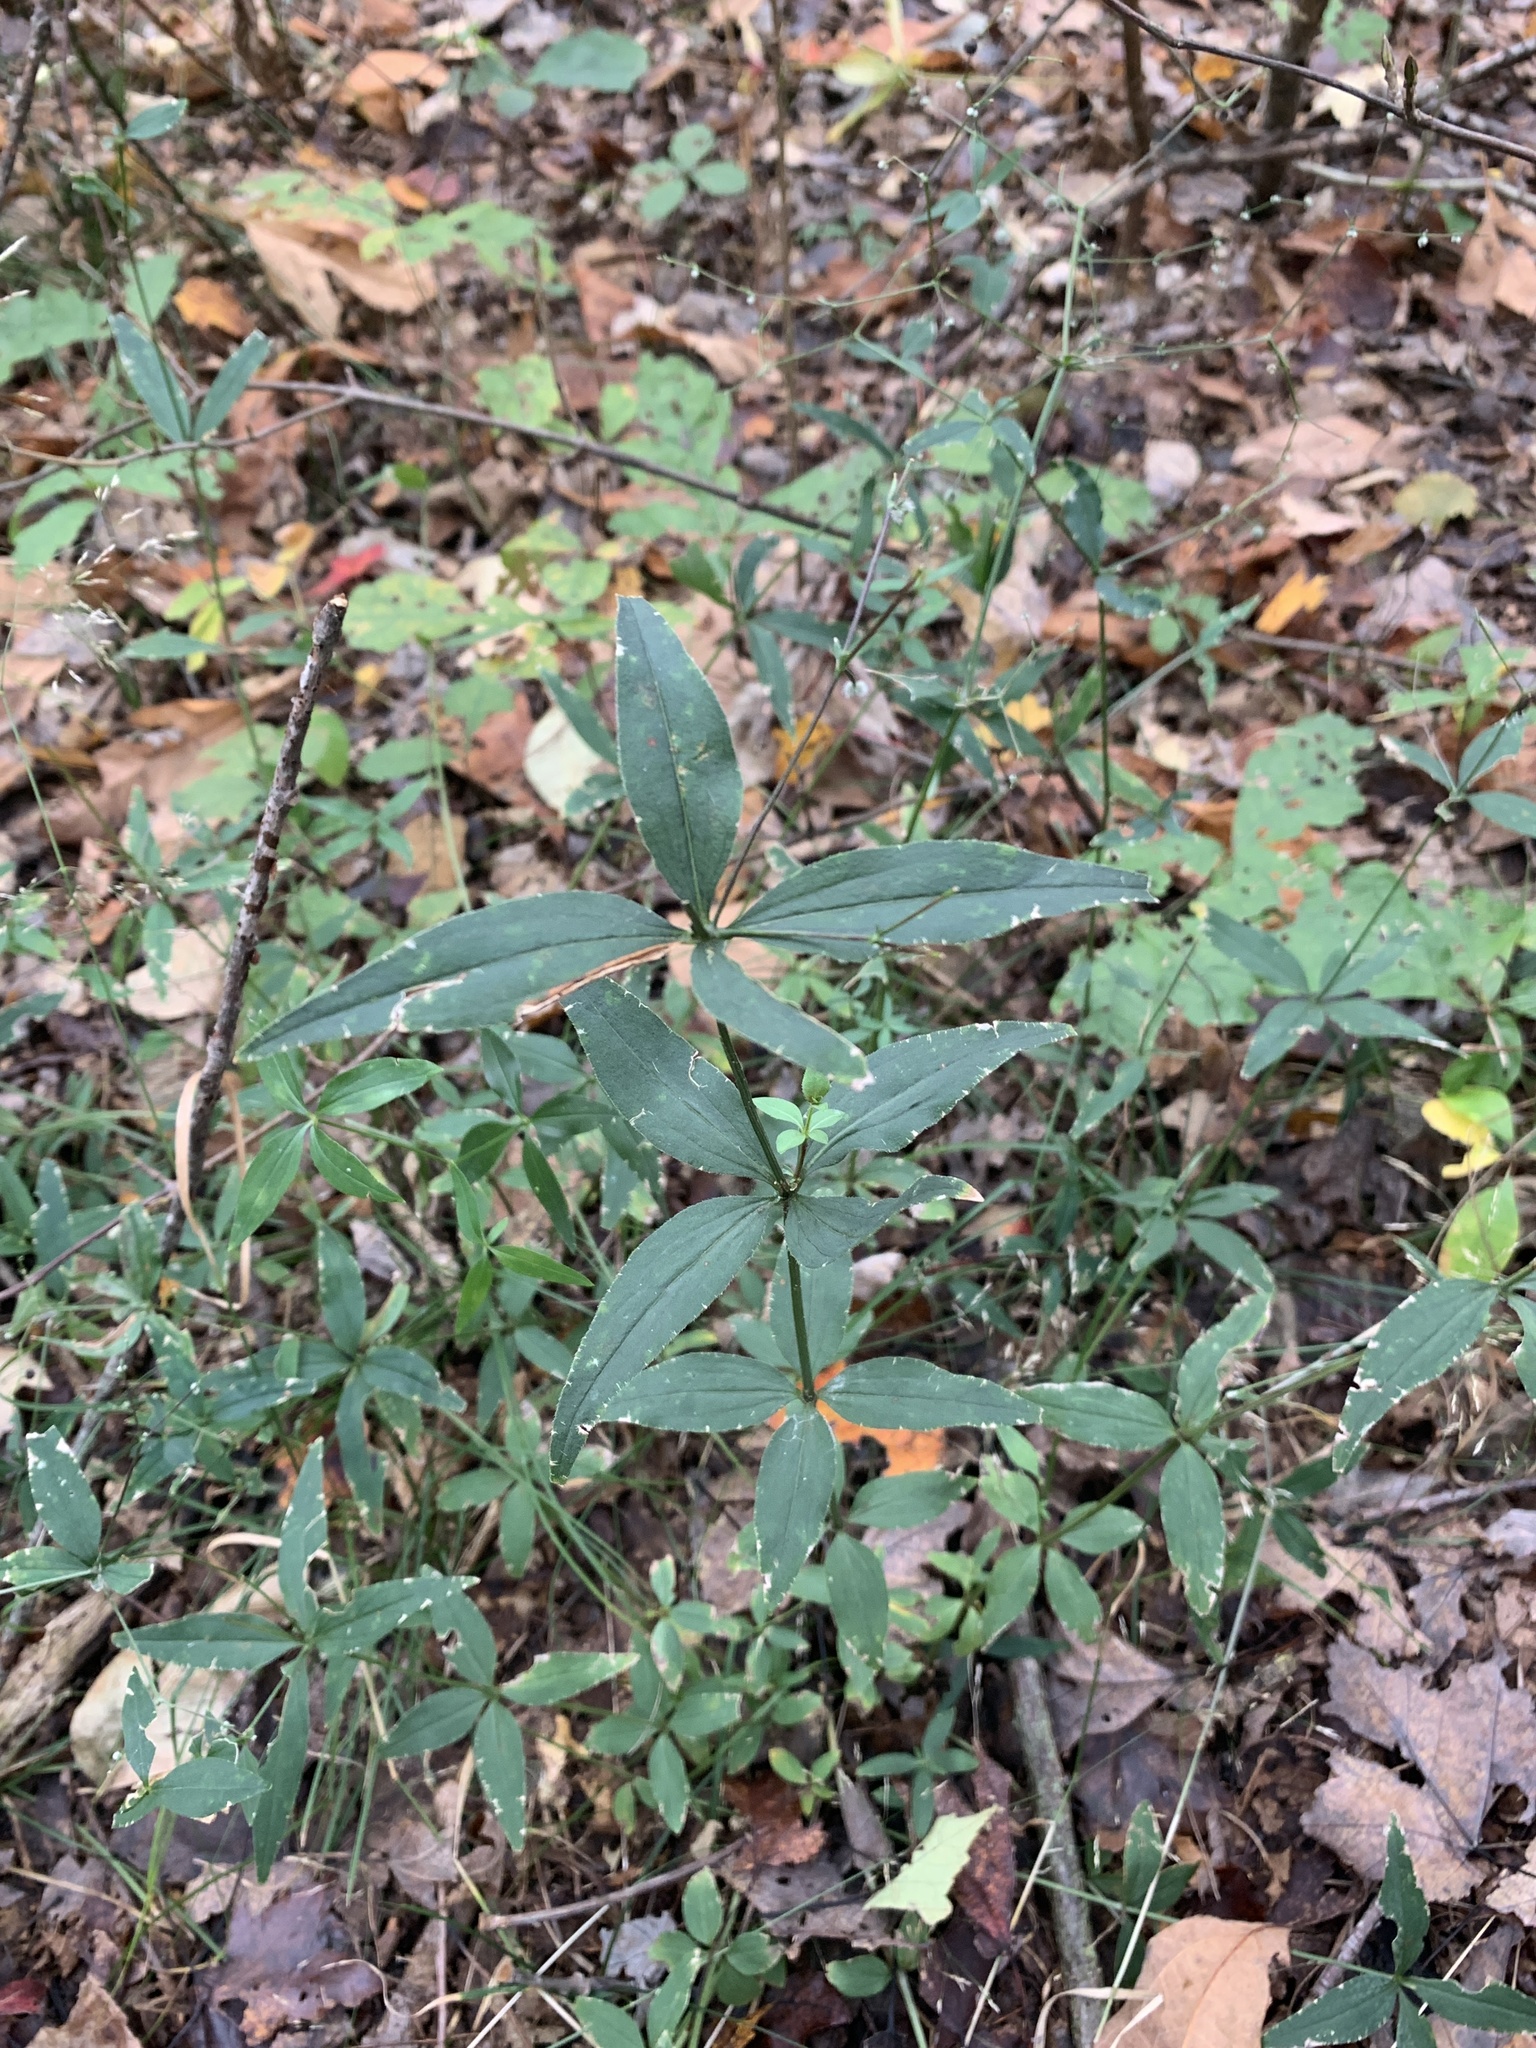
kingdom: Plantae
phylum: Tracheophyta
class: Magnoliopsida
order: Gentianales
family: Rubiaceae
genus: Galium
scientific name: Galium lanceolatum
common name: Lance-leaved wild licorice
